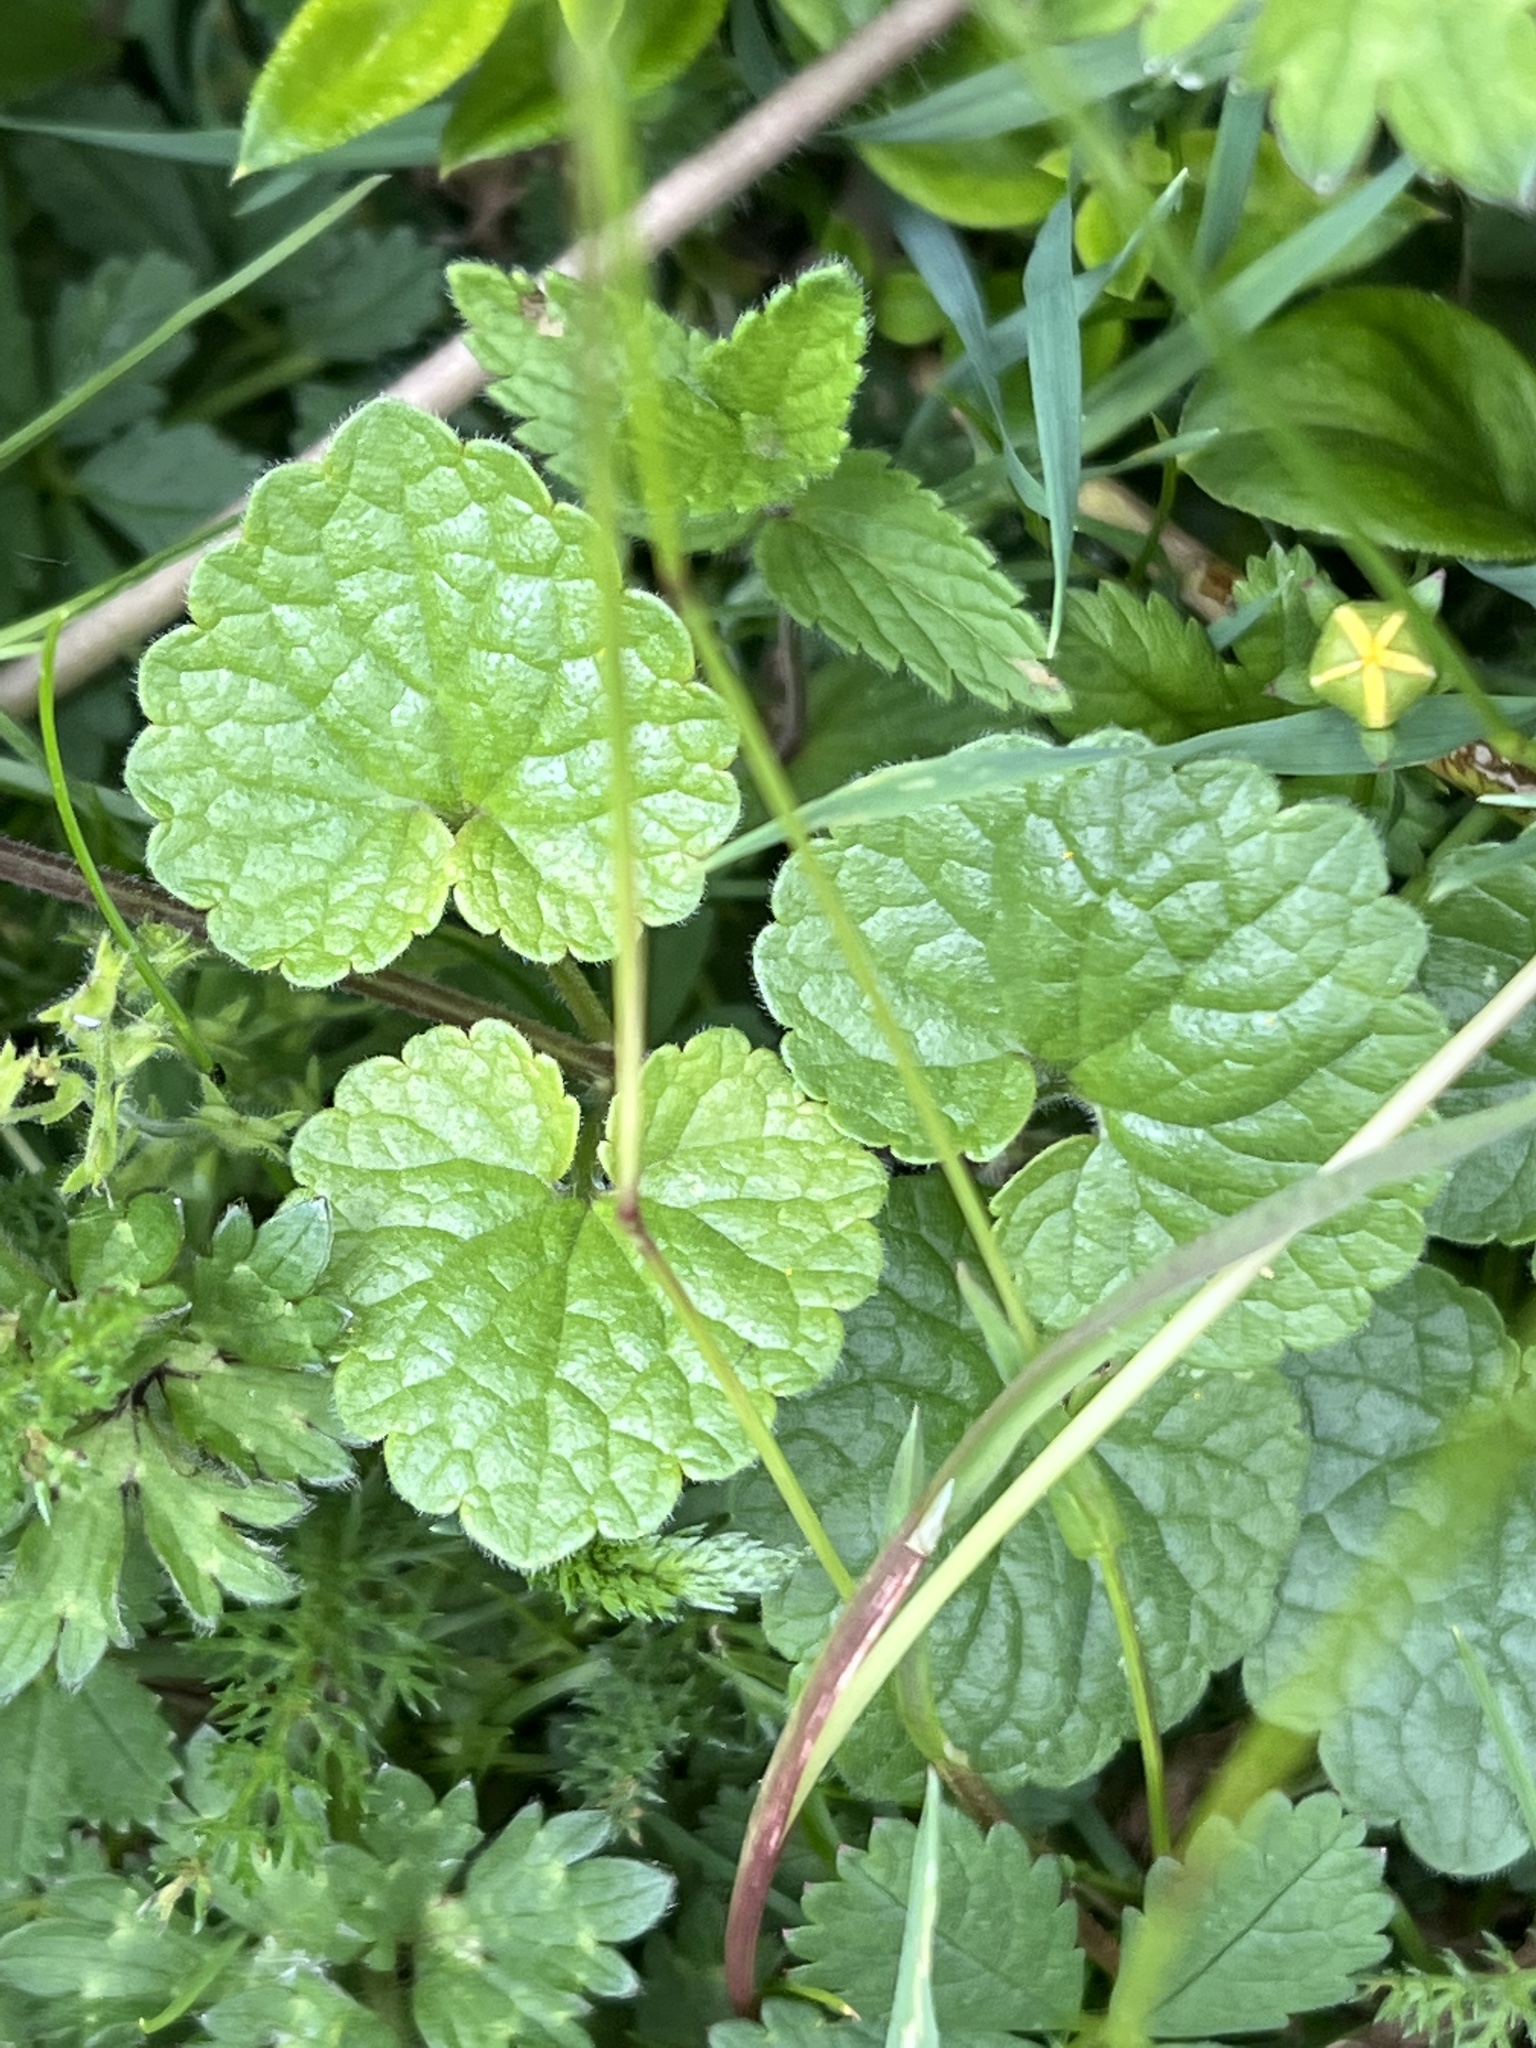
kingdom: Plantae
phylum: Tracheophyta
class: Magnoliopsida
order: Lamiales
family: Lamiaceae
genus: Glechoma
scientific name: Glechoma hederacea
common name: Ground ivy
